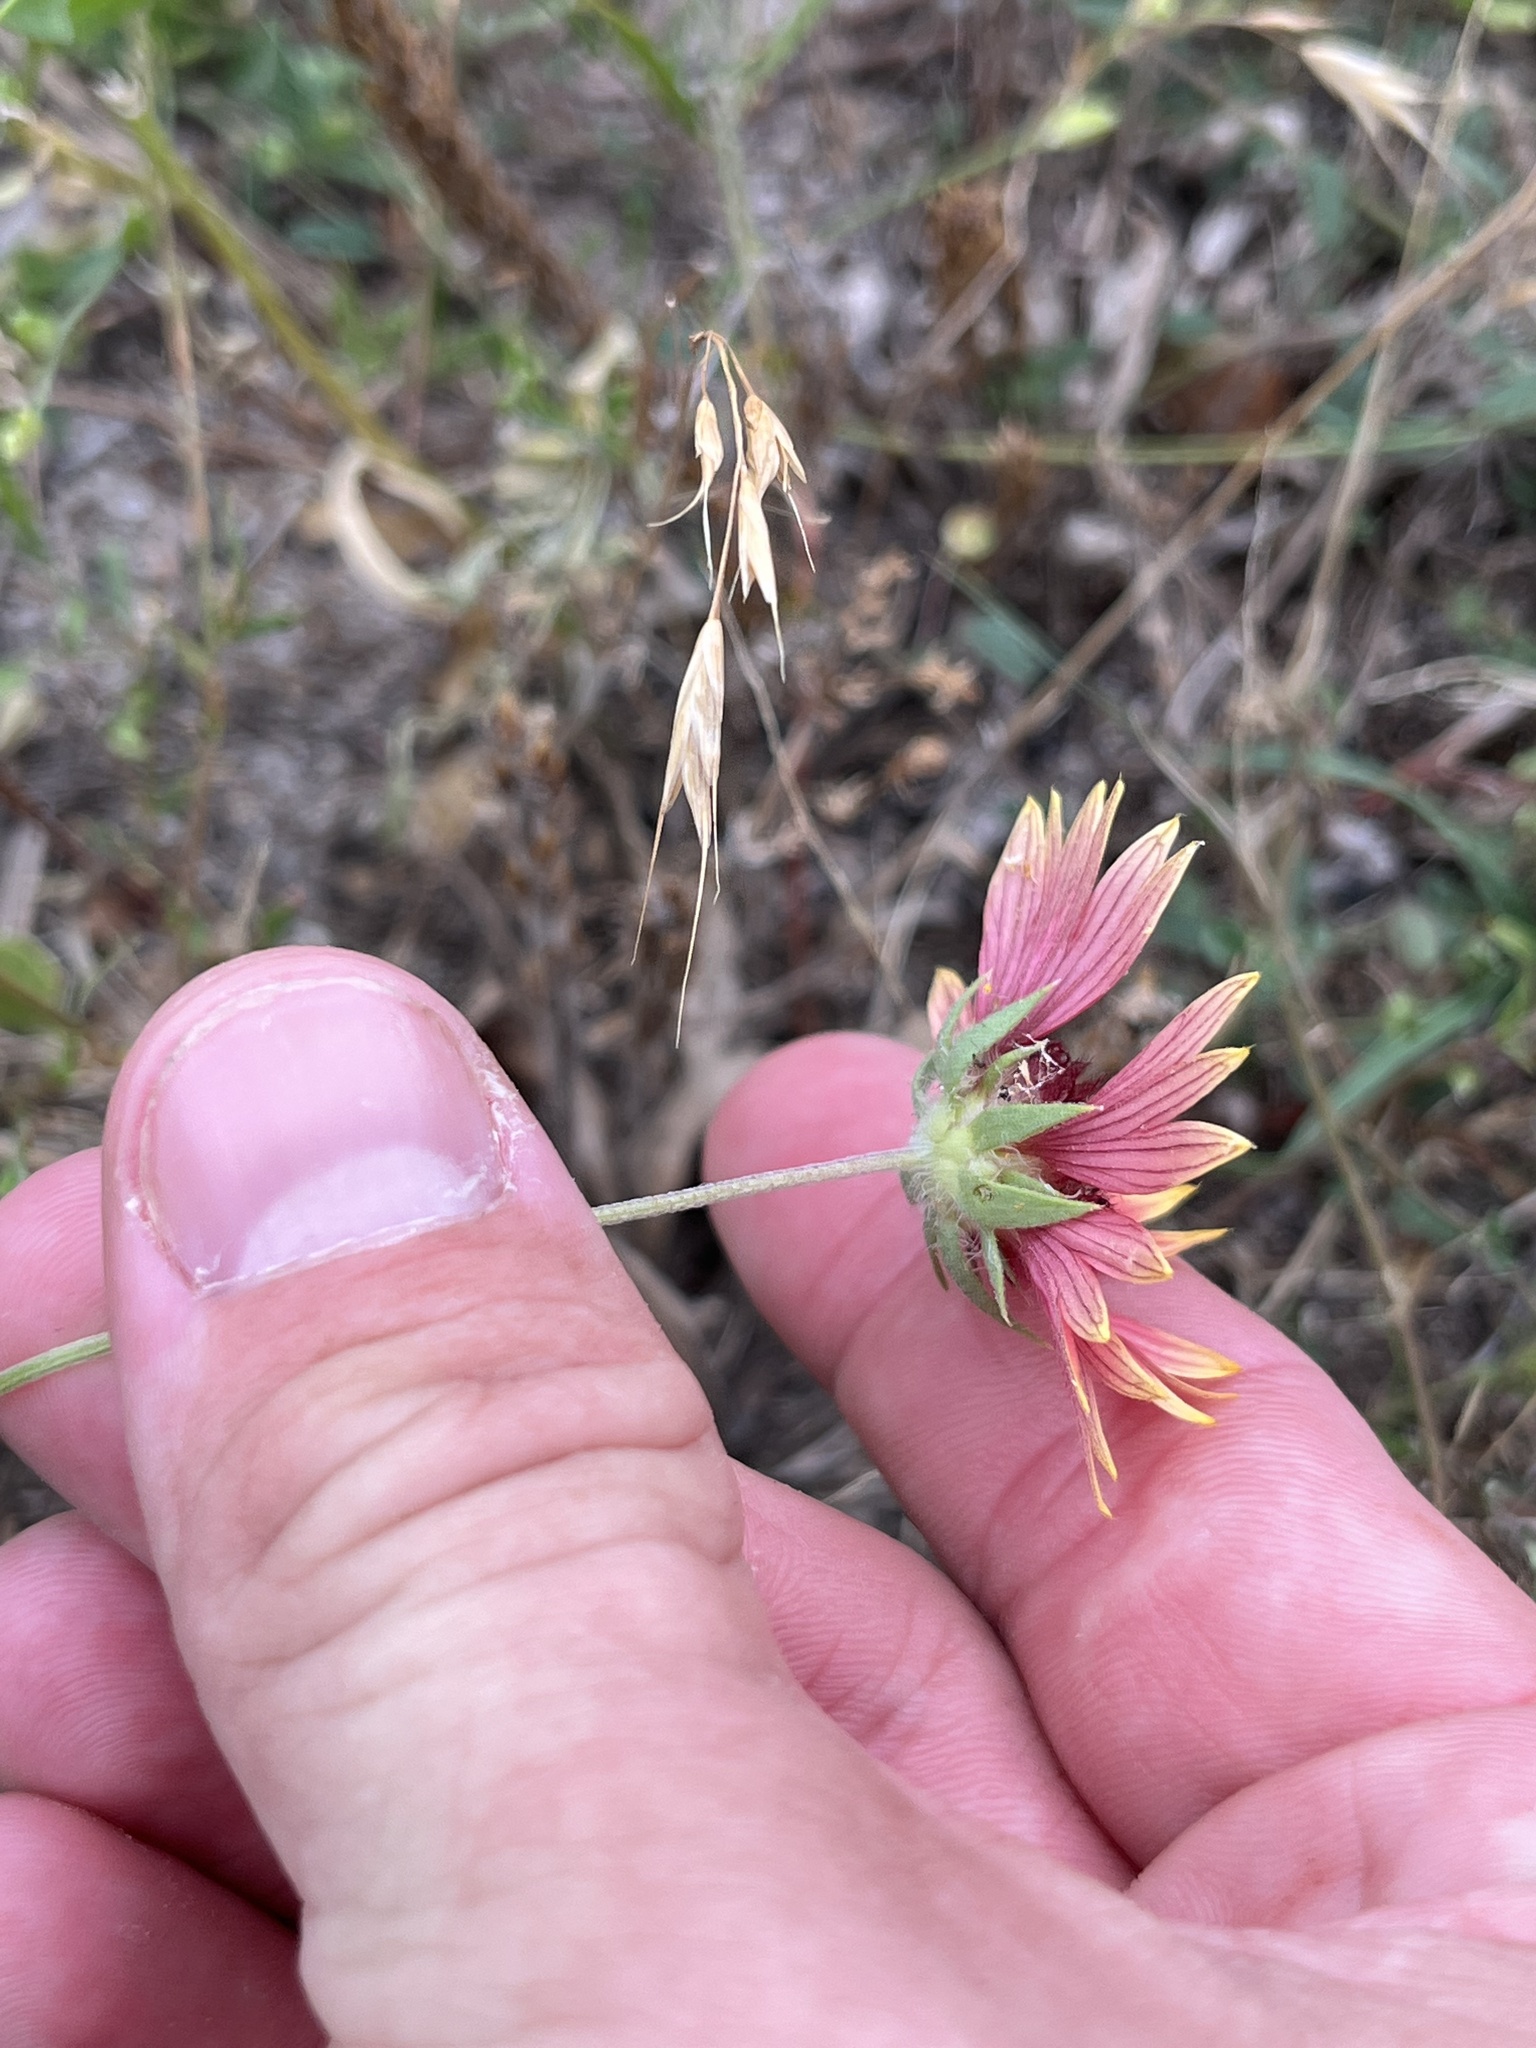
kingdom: Plantae
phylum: Tracheophyta
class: Magnoliopsida
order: Asterales
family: Asteraceae
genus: Gaillardia
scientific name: Gaillardia pulchella
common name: Firewheel
